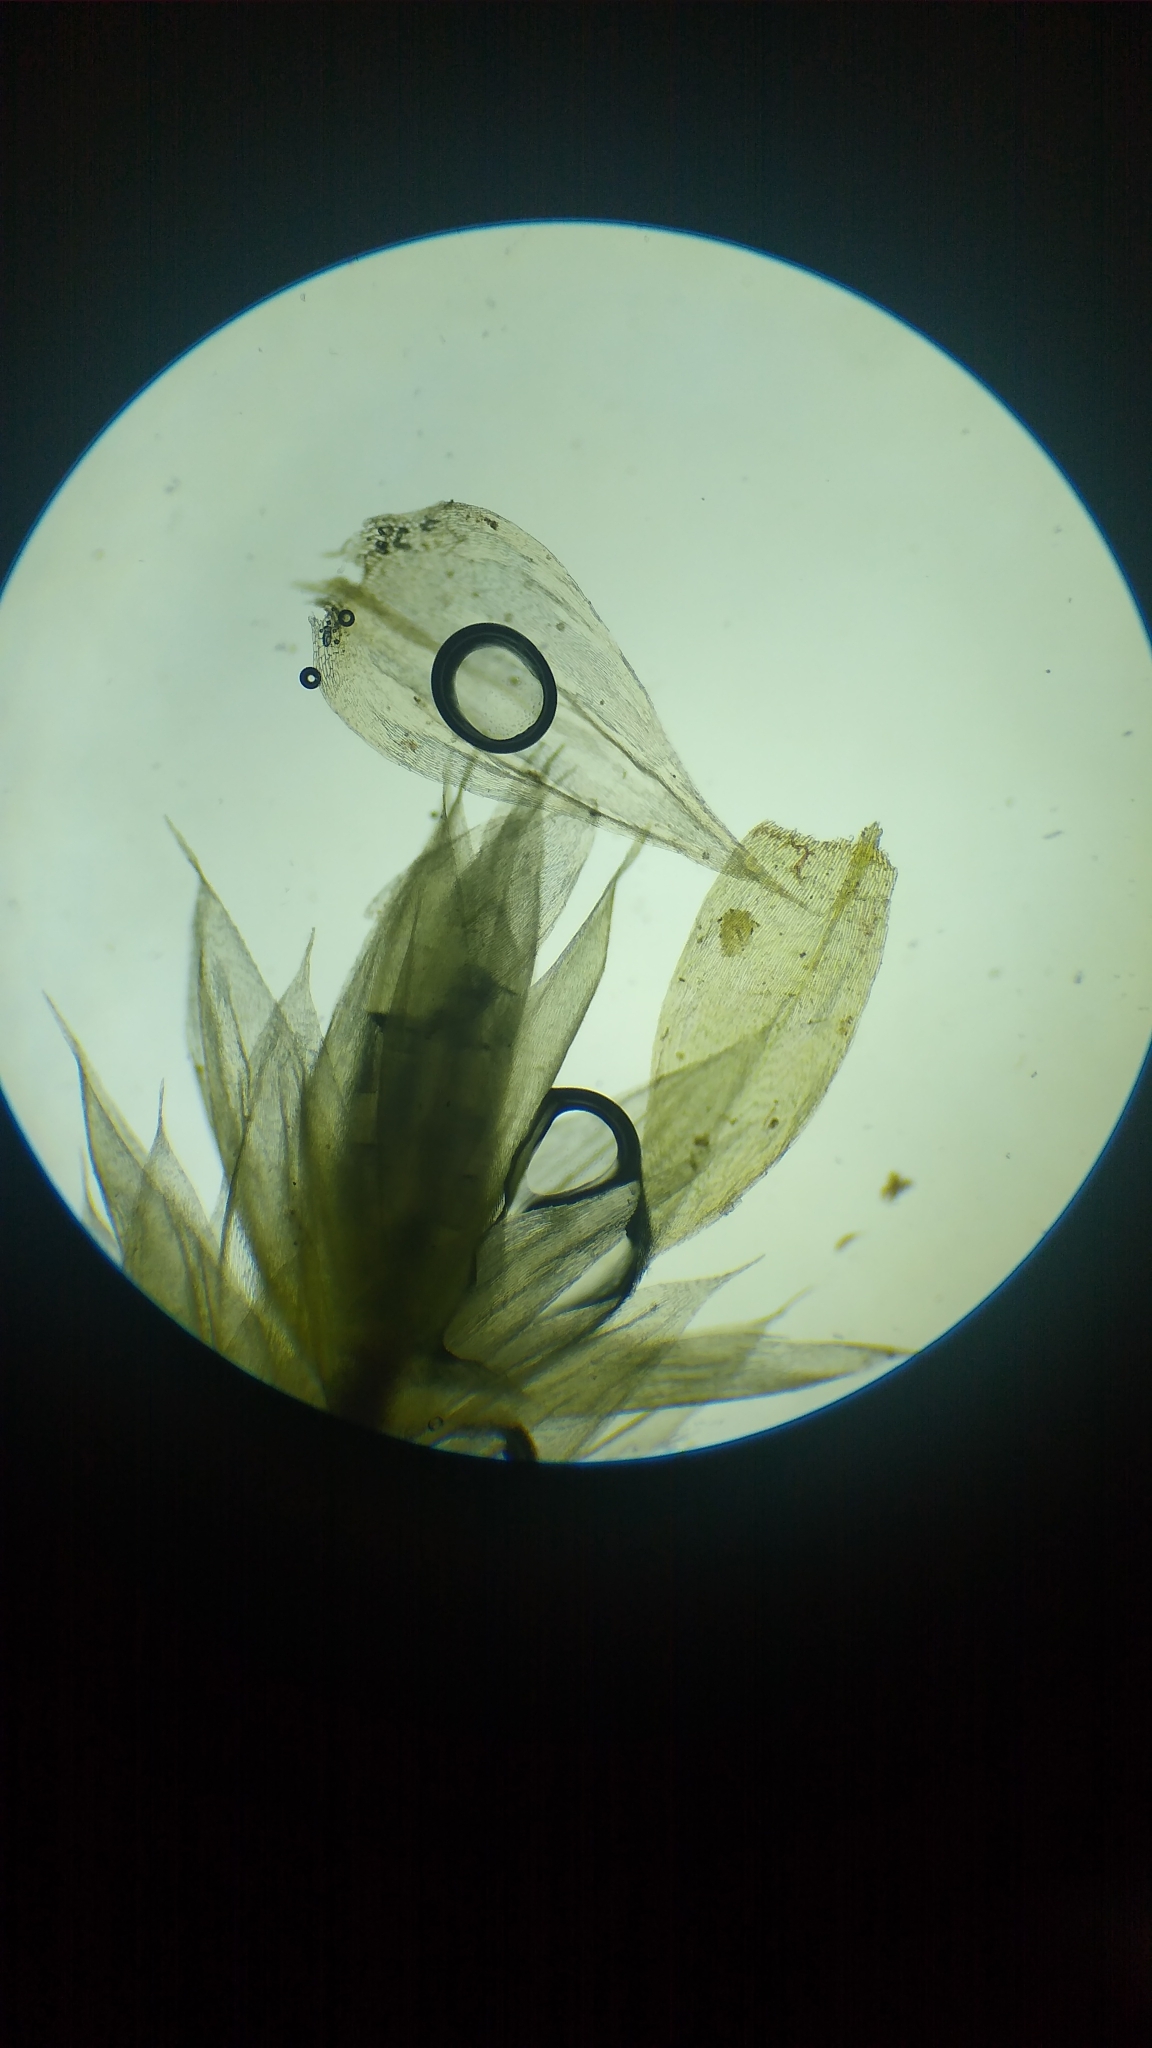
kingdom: Plantae
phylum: Bryophyta
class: Bryopsida
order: Hypnales
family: Brachytheciaceae
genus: Brachythecium
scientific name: Brachythecium rutabulum
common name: Rough-stalked feather-moss
